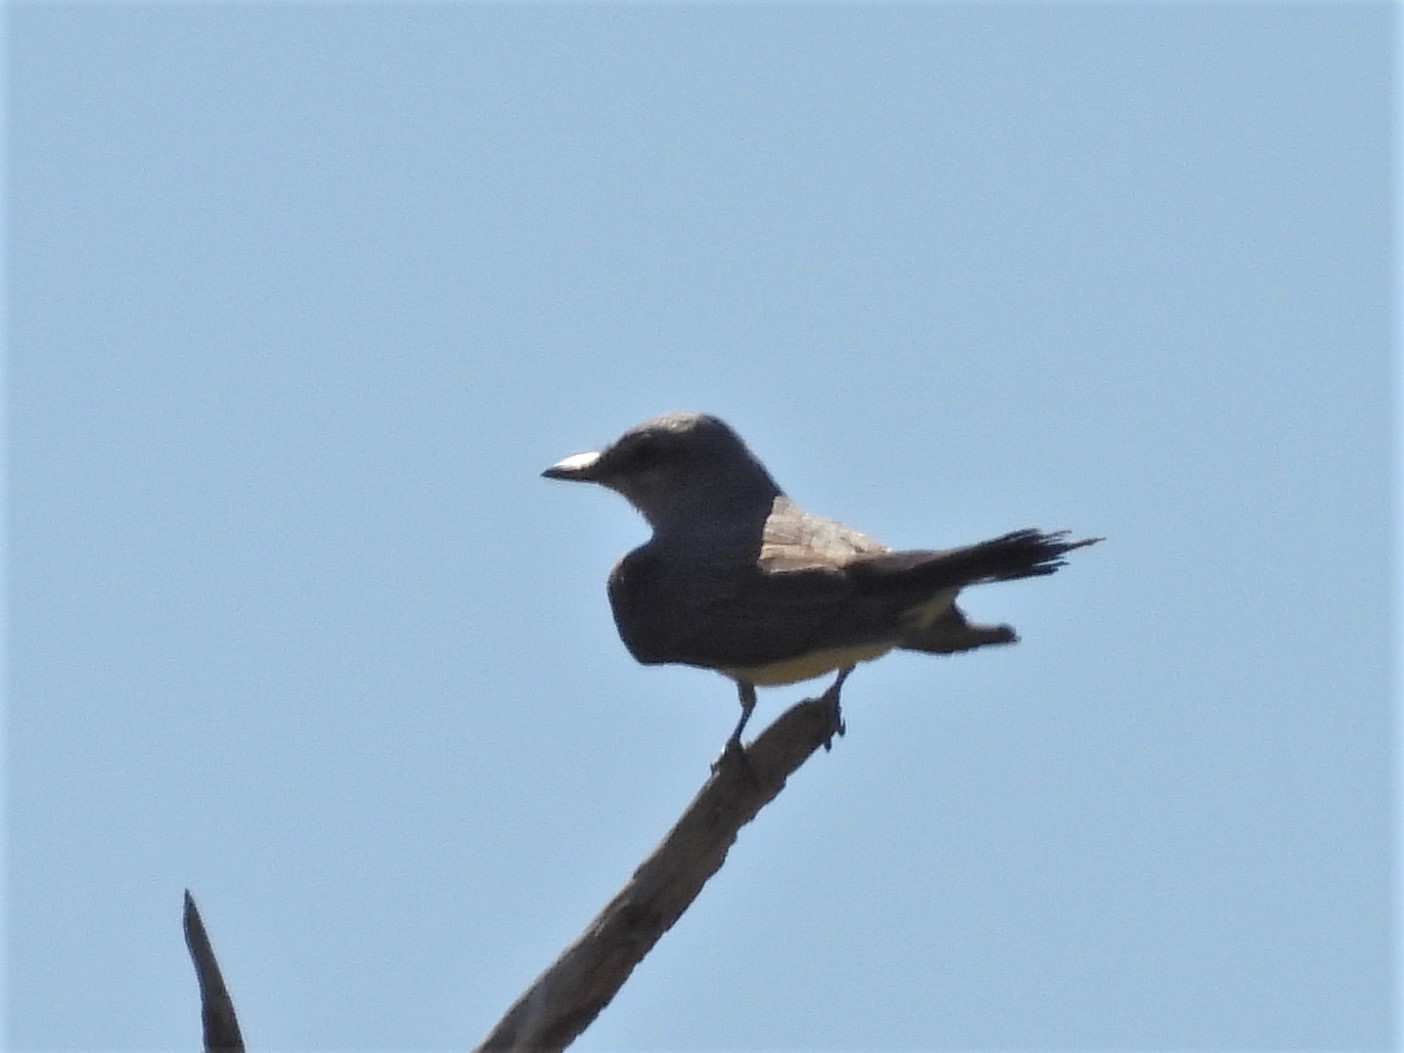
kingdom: Animalia
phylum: Chordata
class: Aves
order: Passeriformes
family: Tyrannidae
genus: Tyrannus
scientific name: Tyrannus verticalis
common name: Western kingbird
